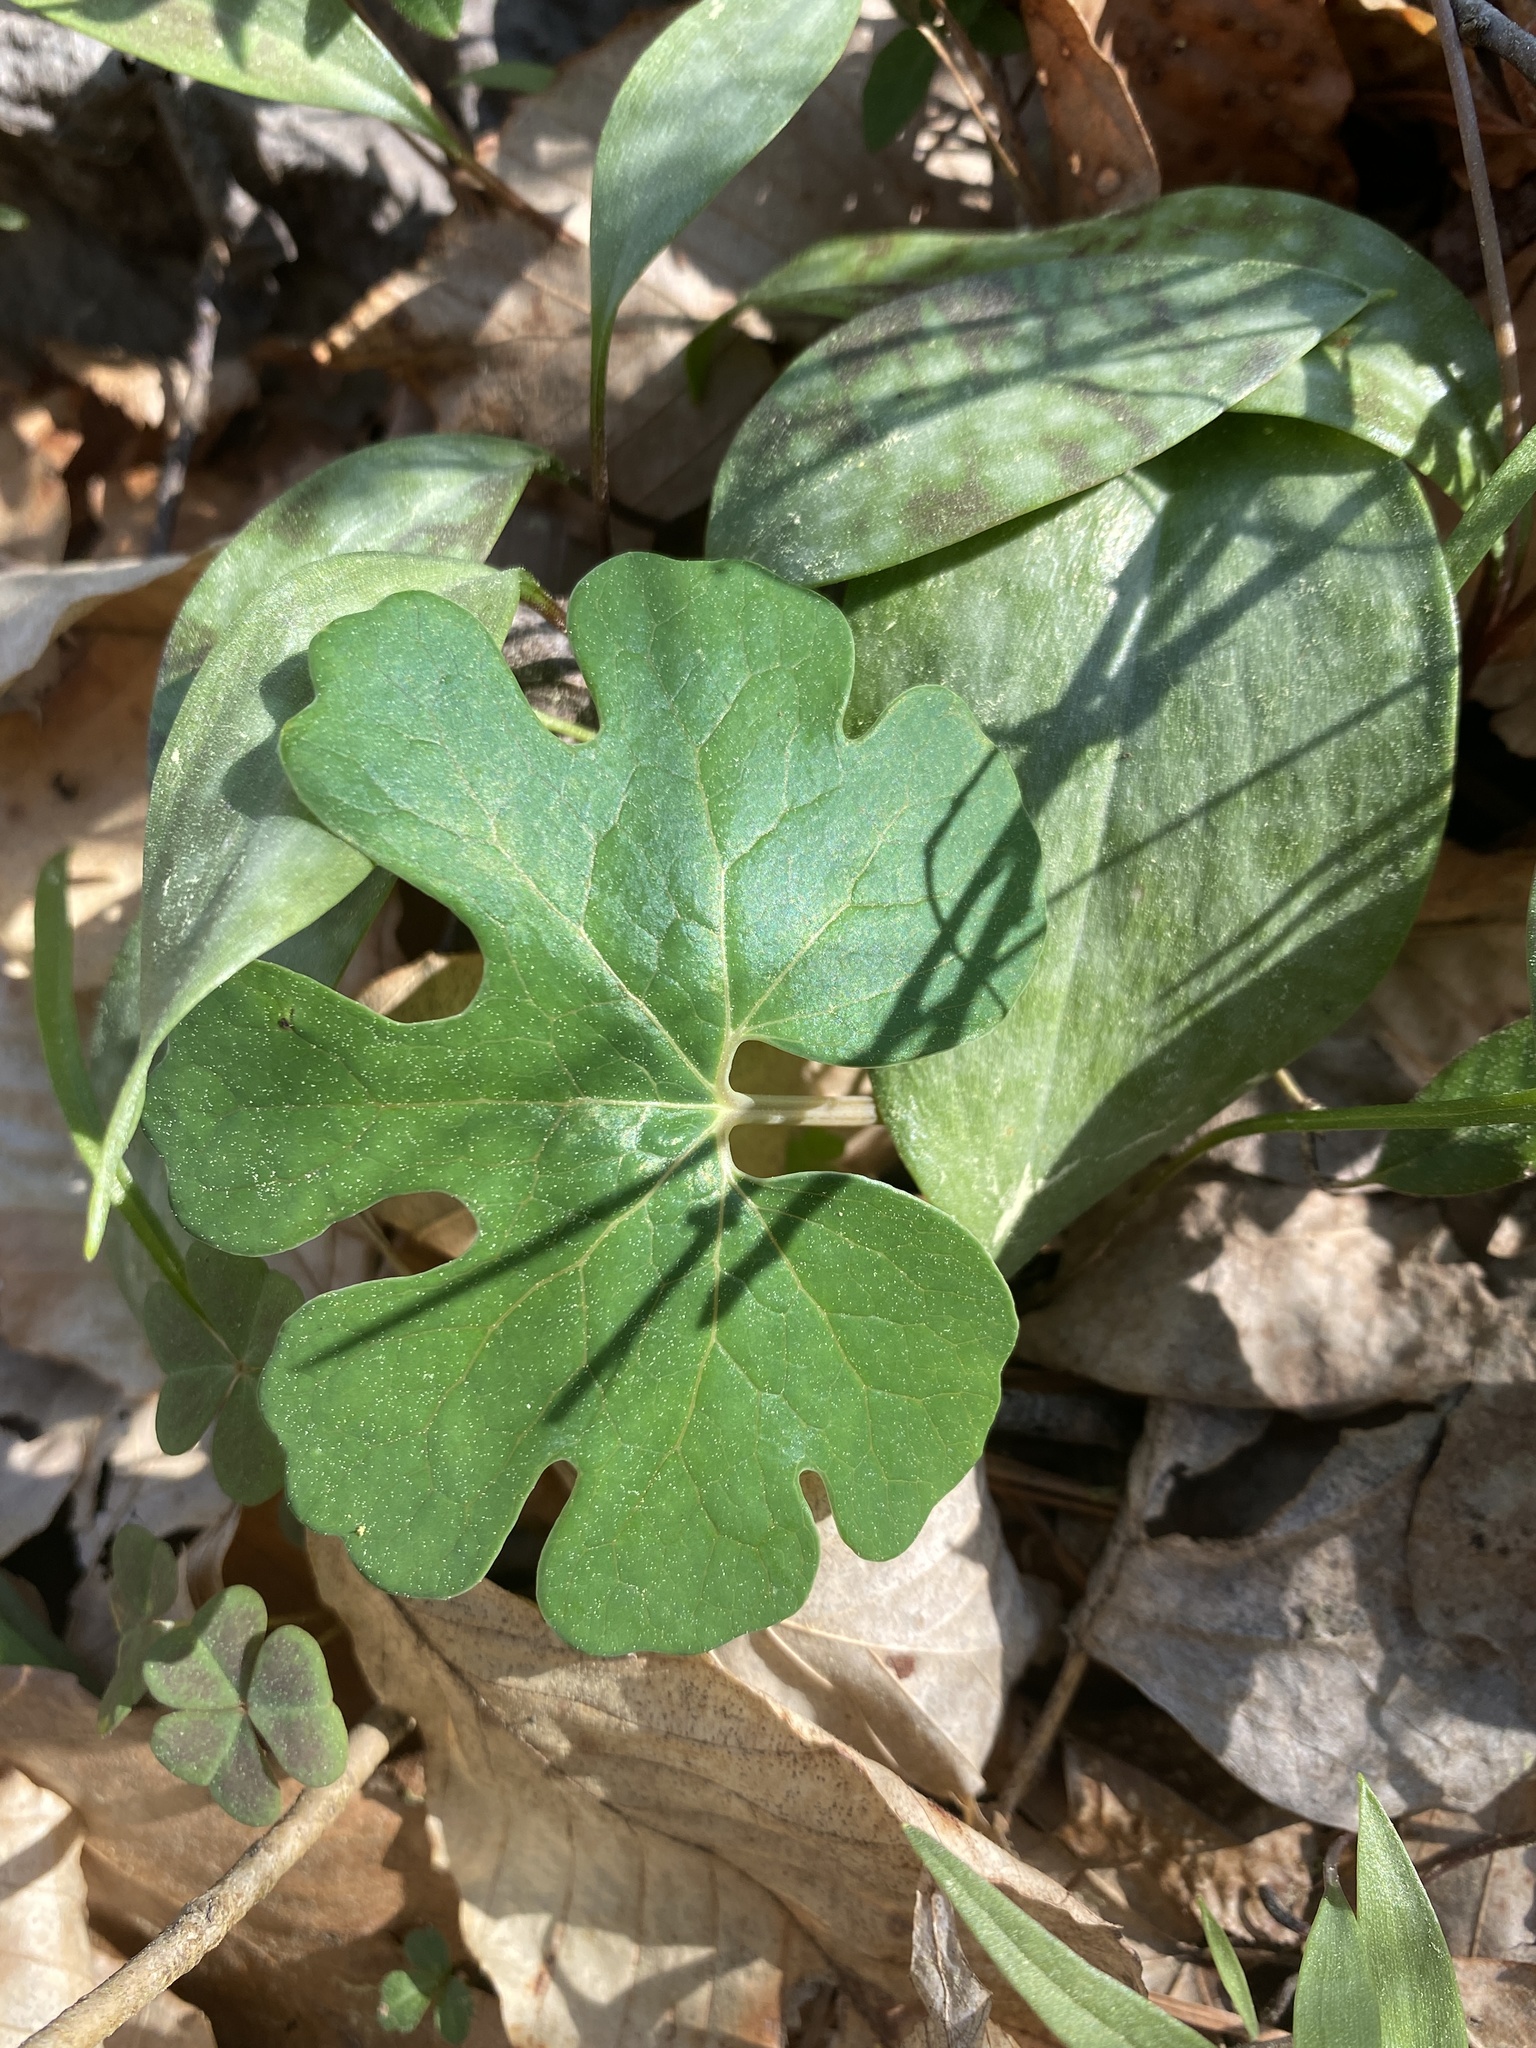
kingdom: Plantae
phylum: Tracheophyta
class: Magnoliopsida
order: Ranunculales
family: Papaveraceae
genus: Sanguinaria
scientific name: Sanguinaria canadensis
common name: Bloodroot
